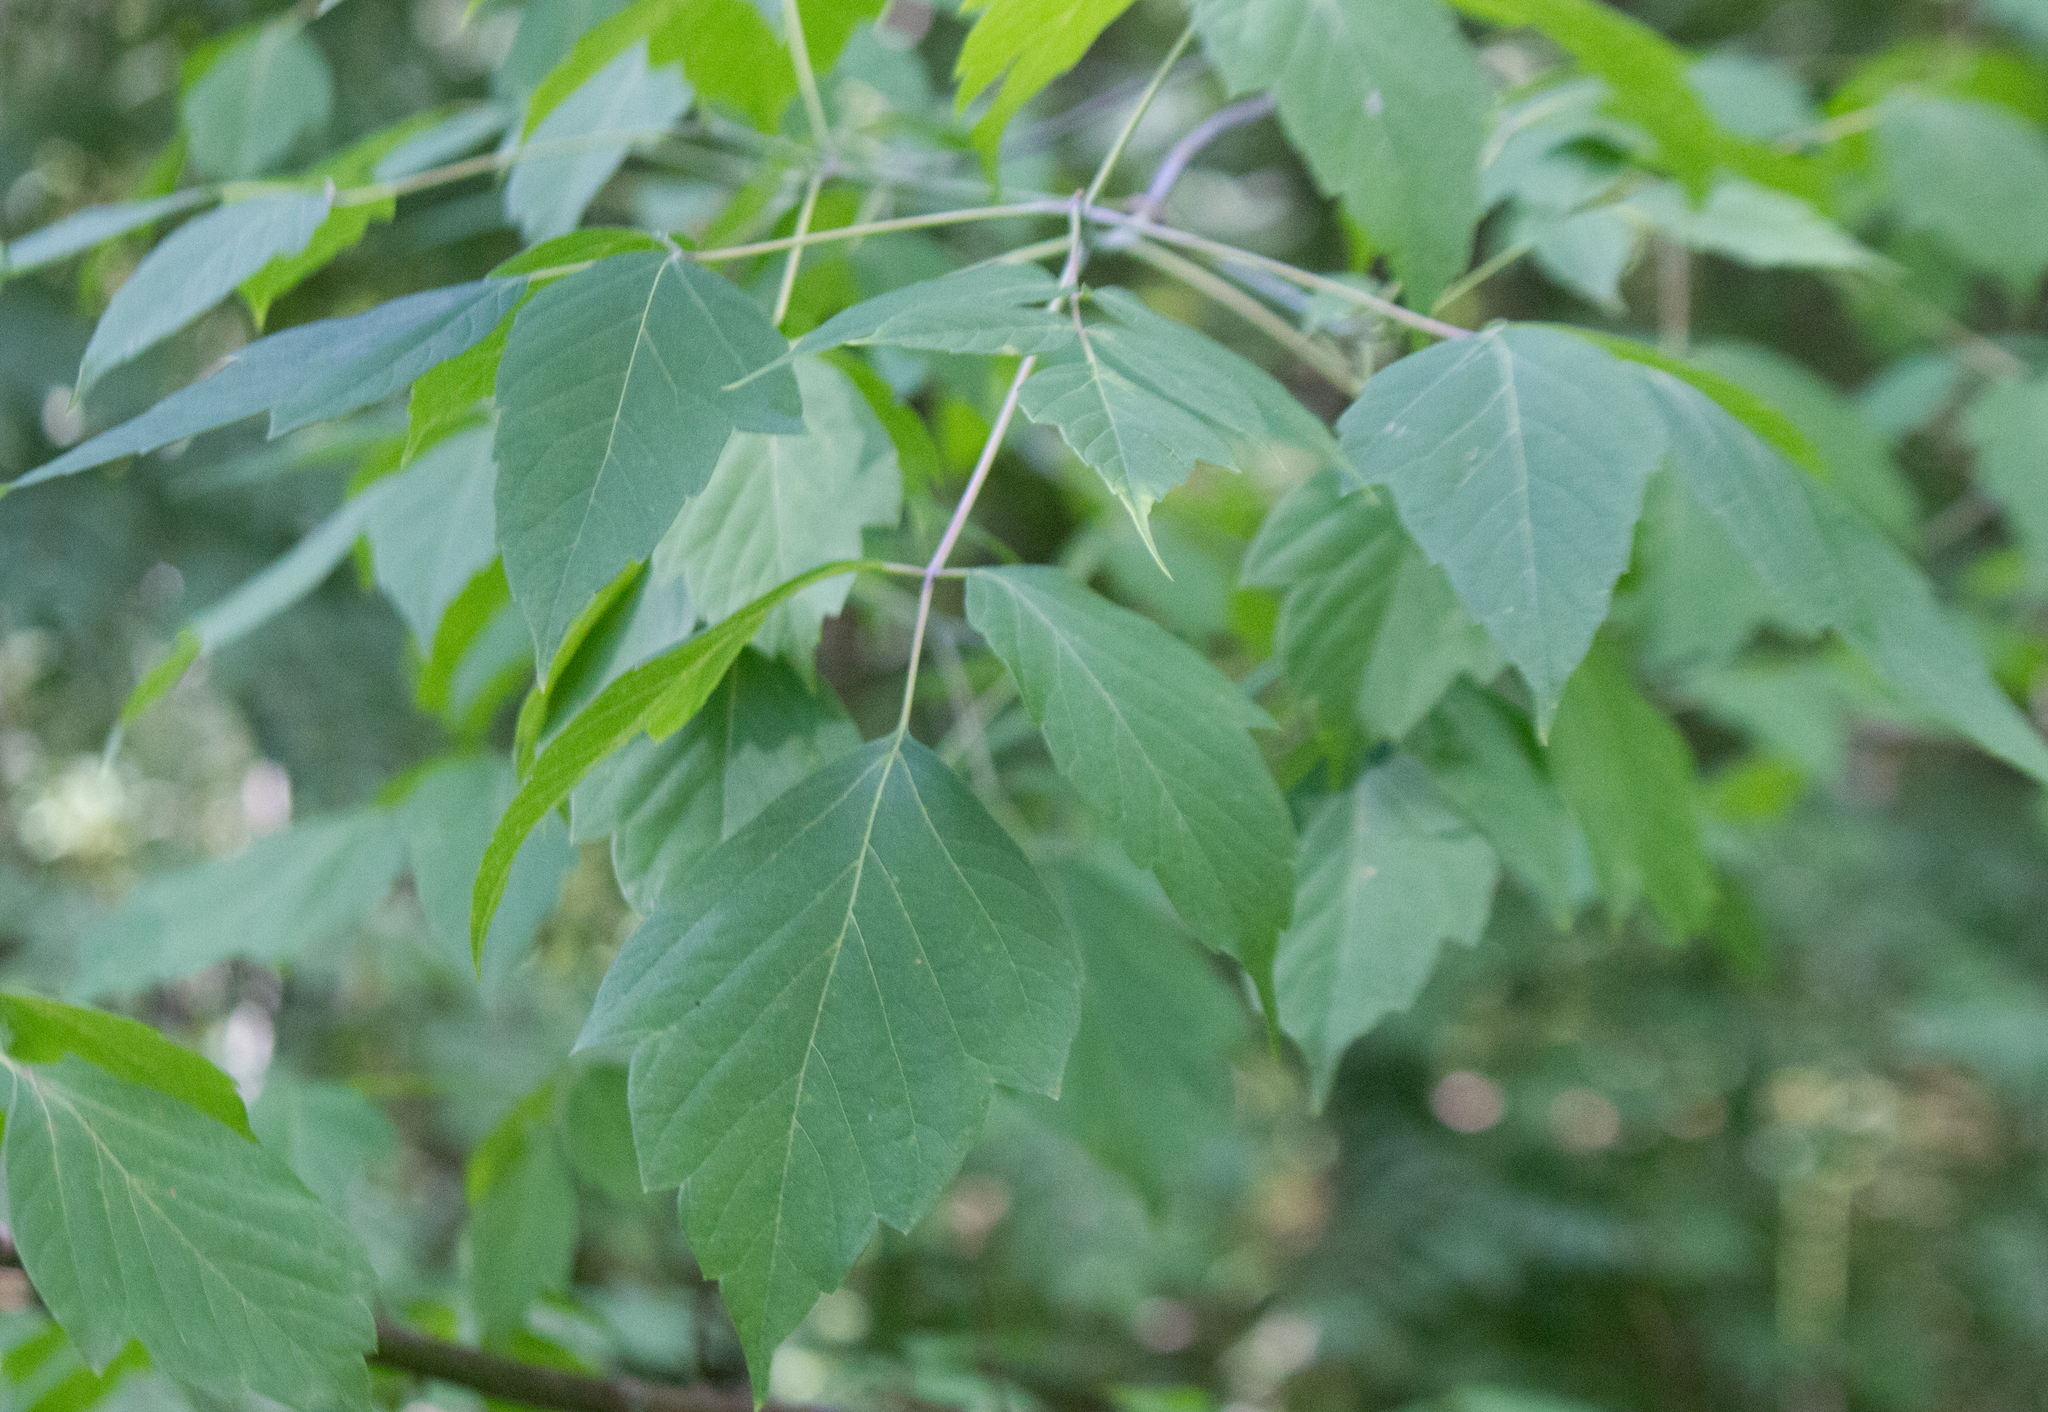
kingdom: Plantae
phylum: Tracheophyta
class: Magnoliopsida
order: Sapindales
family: Sapindaceae
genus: Acer
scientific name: Acer negundo
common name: Ashleaf maple
